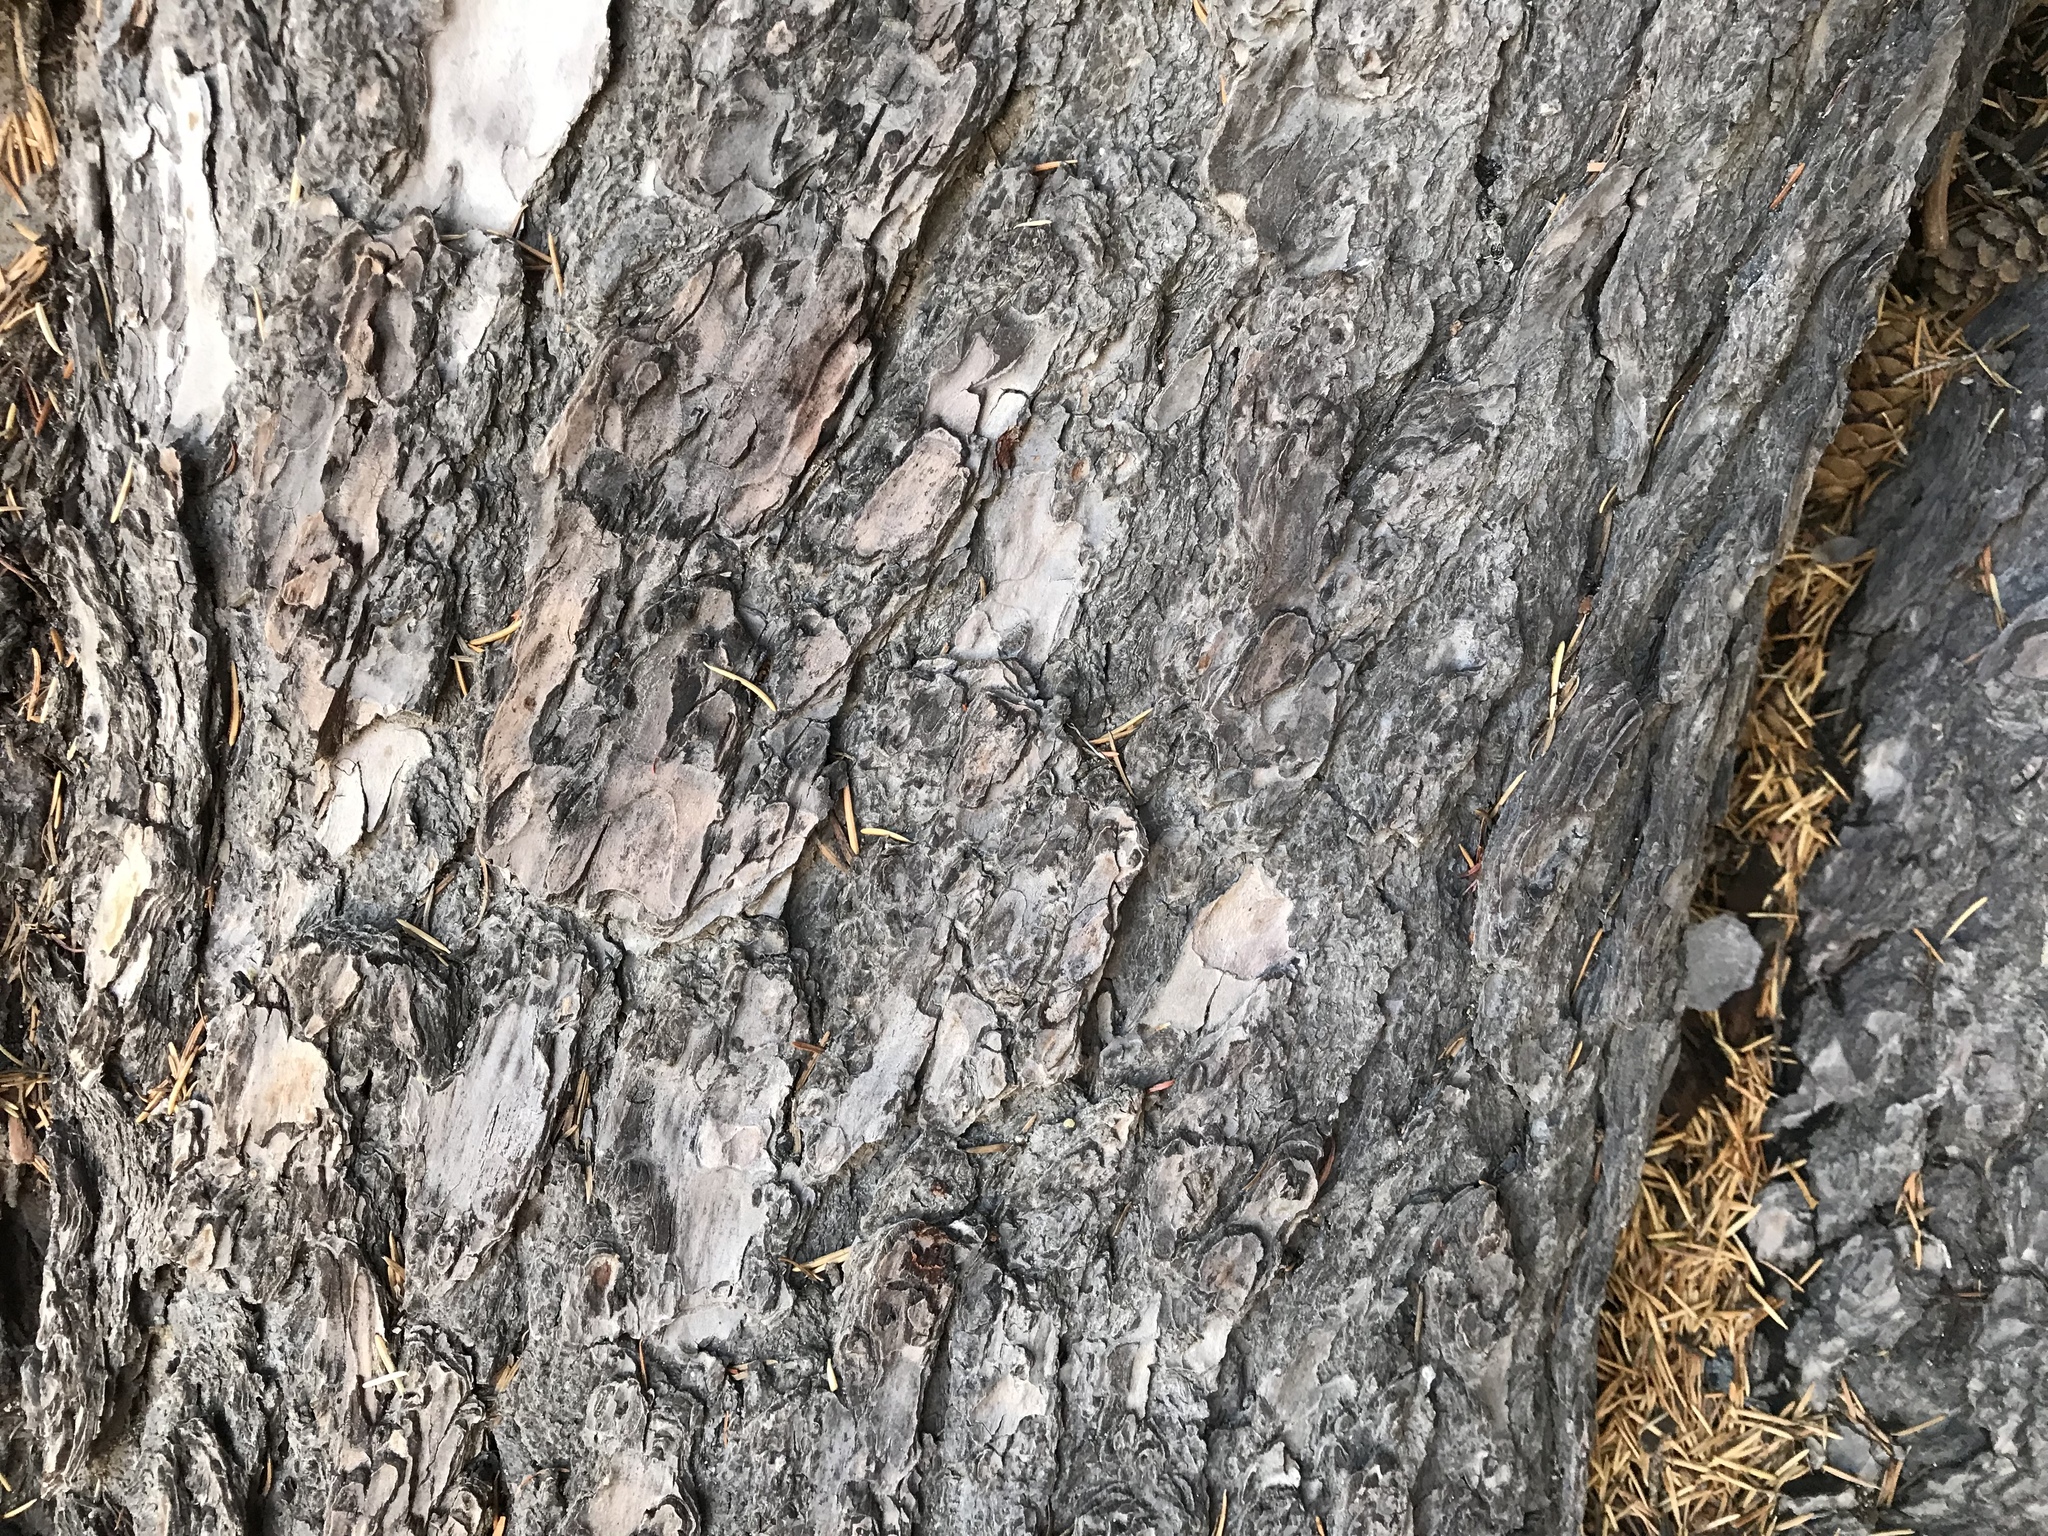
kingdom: Plantae
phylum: Tracheophyta
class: Pinopsida
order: Pinales
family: Pinaceae
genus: Tsuga
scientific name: Tsuga mertensiana
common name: Mountain hemlock
